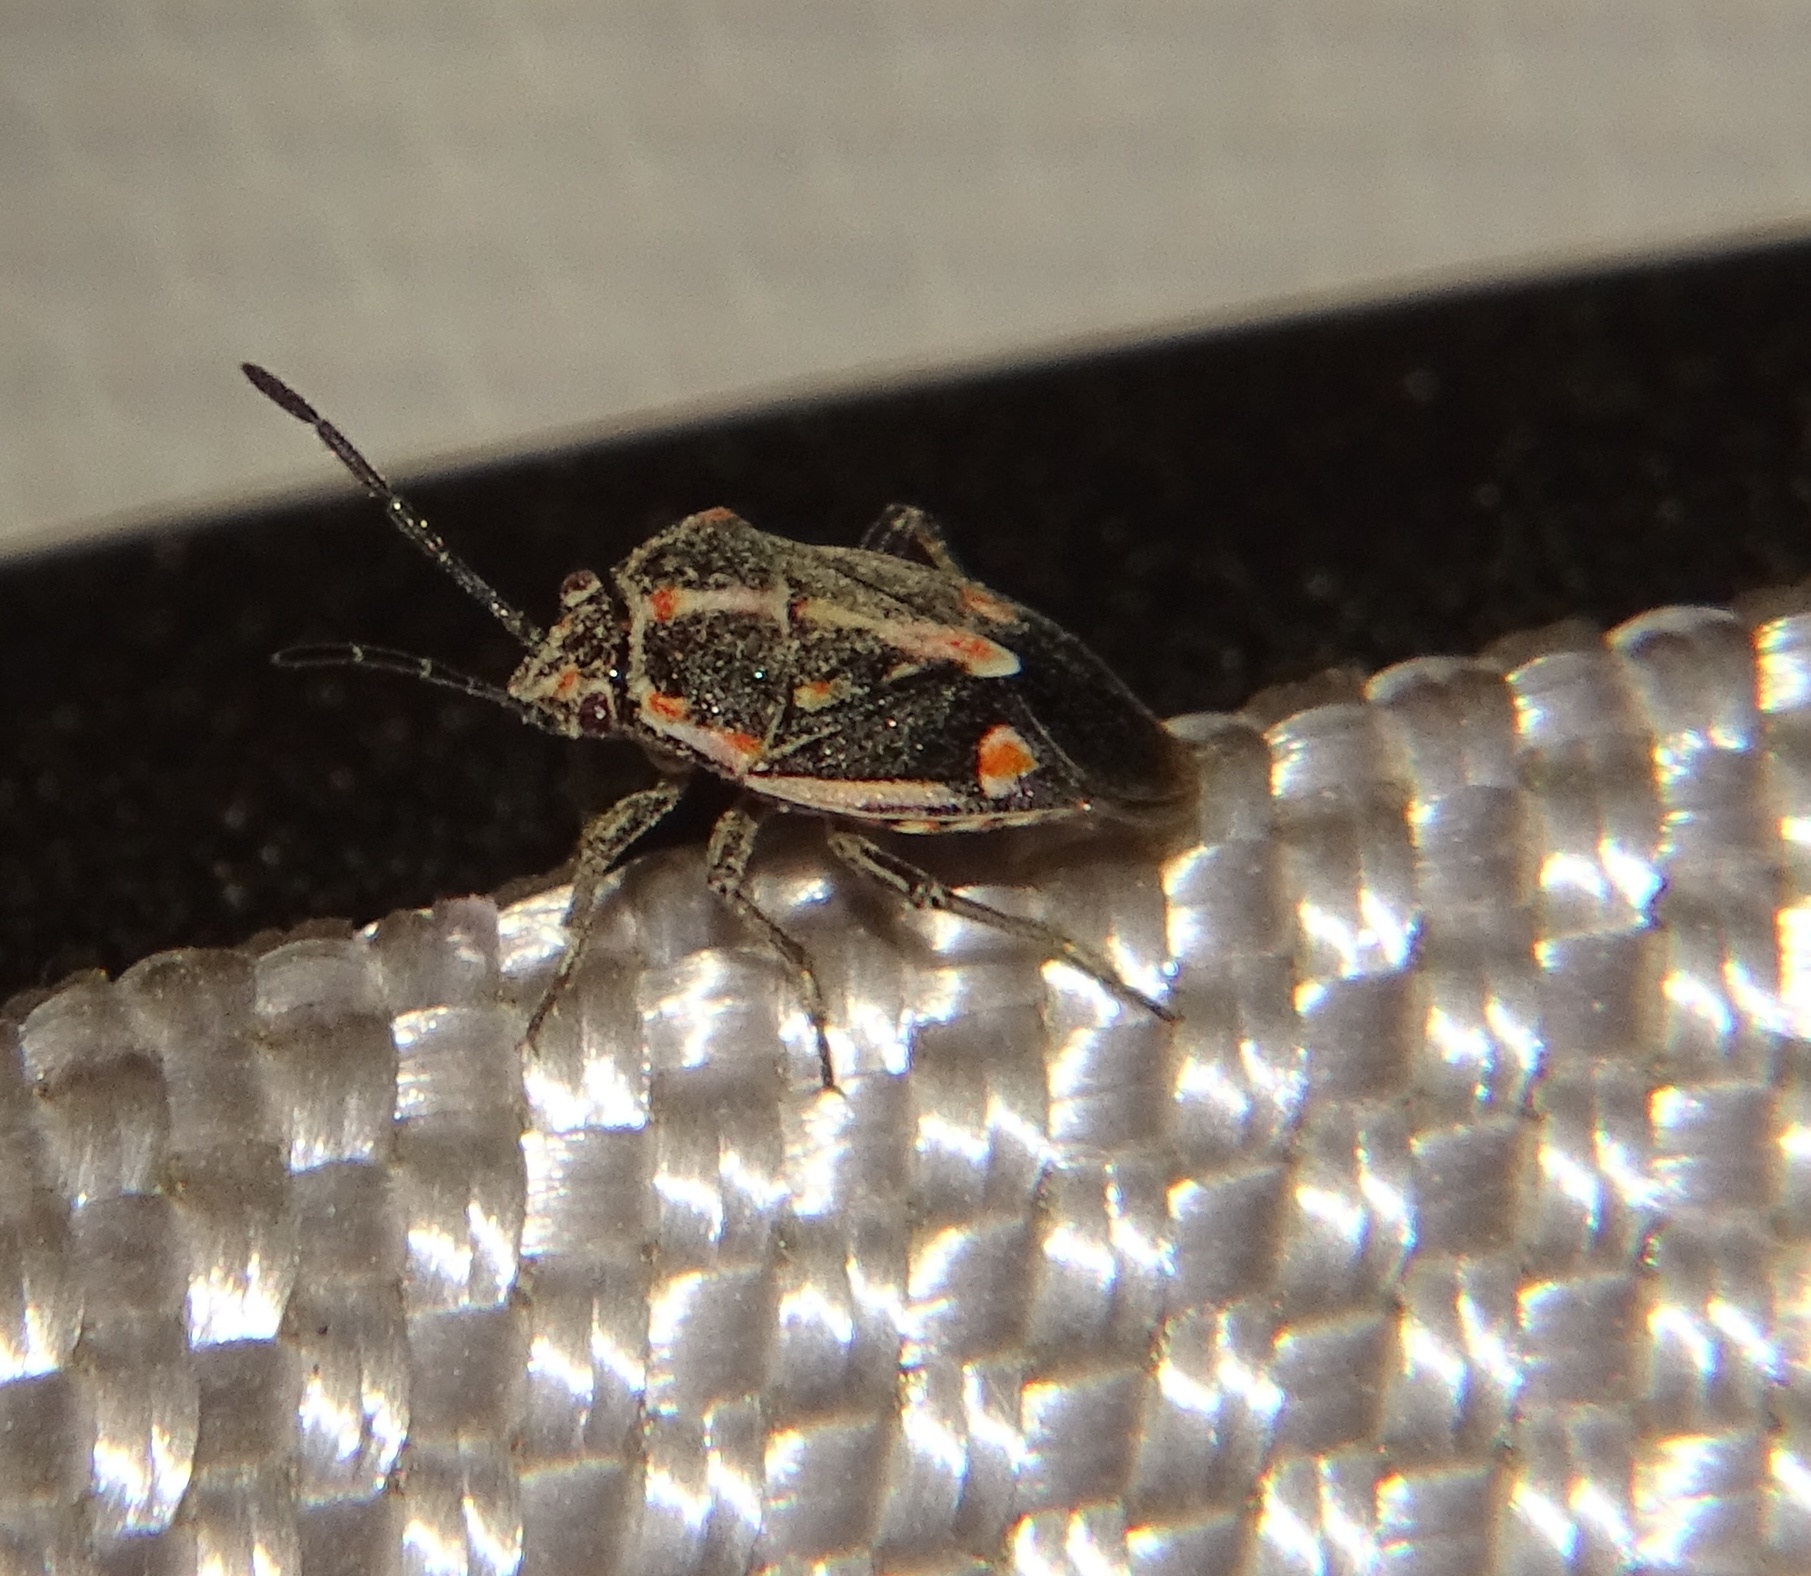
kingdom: Animalia
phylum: Arthropoda
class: Insecta
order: Hemiptera
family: Pentatomidae
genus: Bagrada
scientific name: Bagrada hilaris
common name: Bagrada bug
